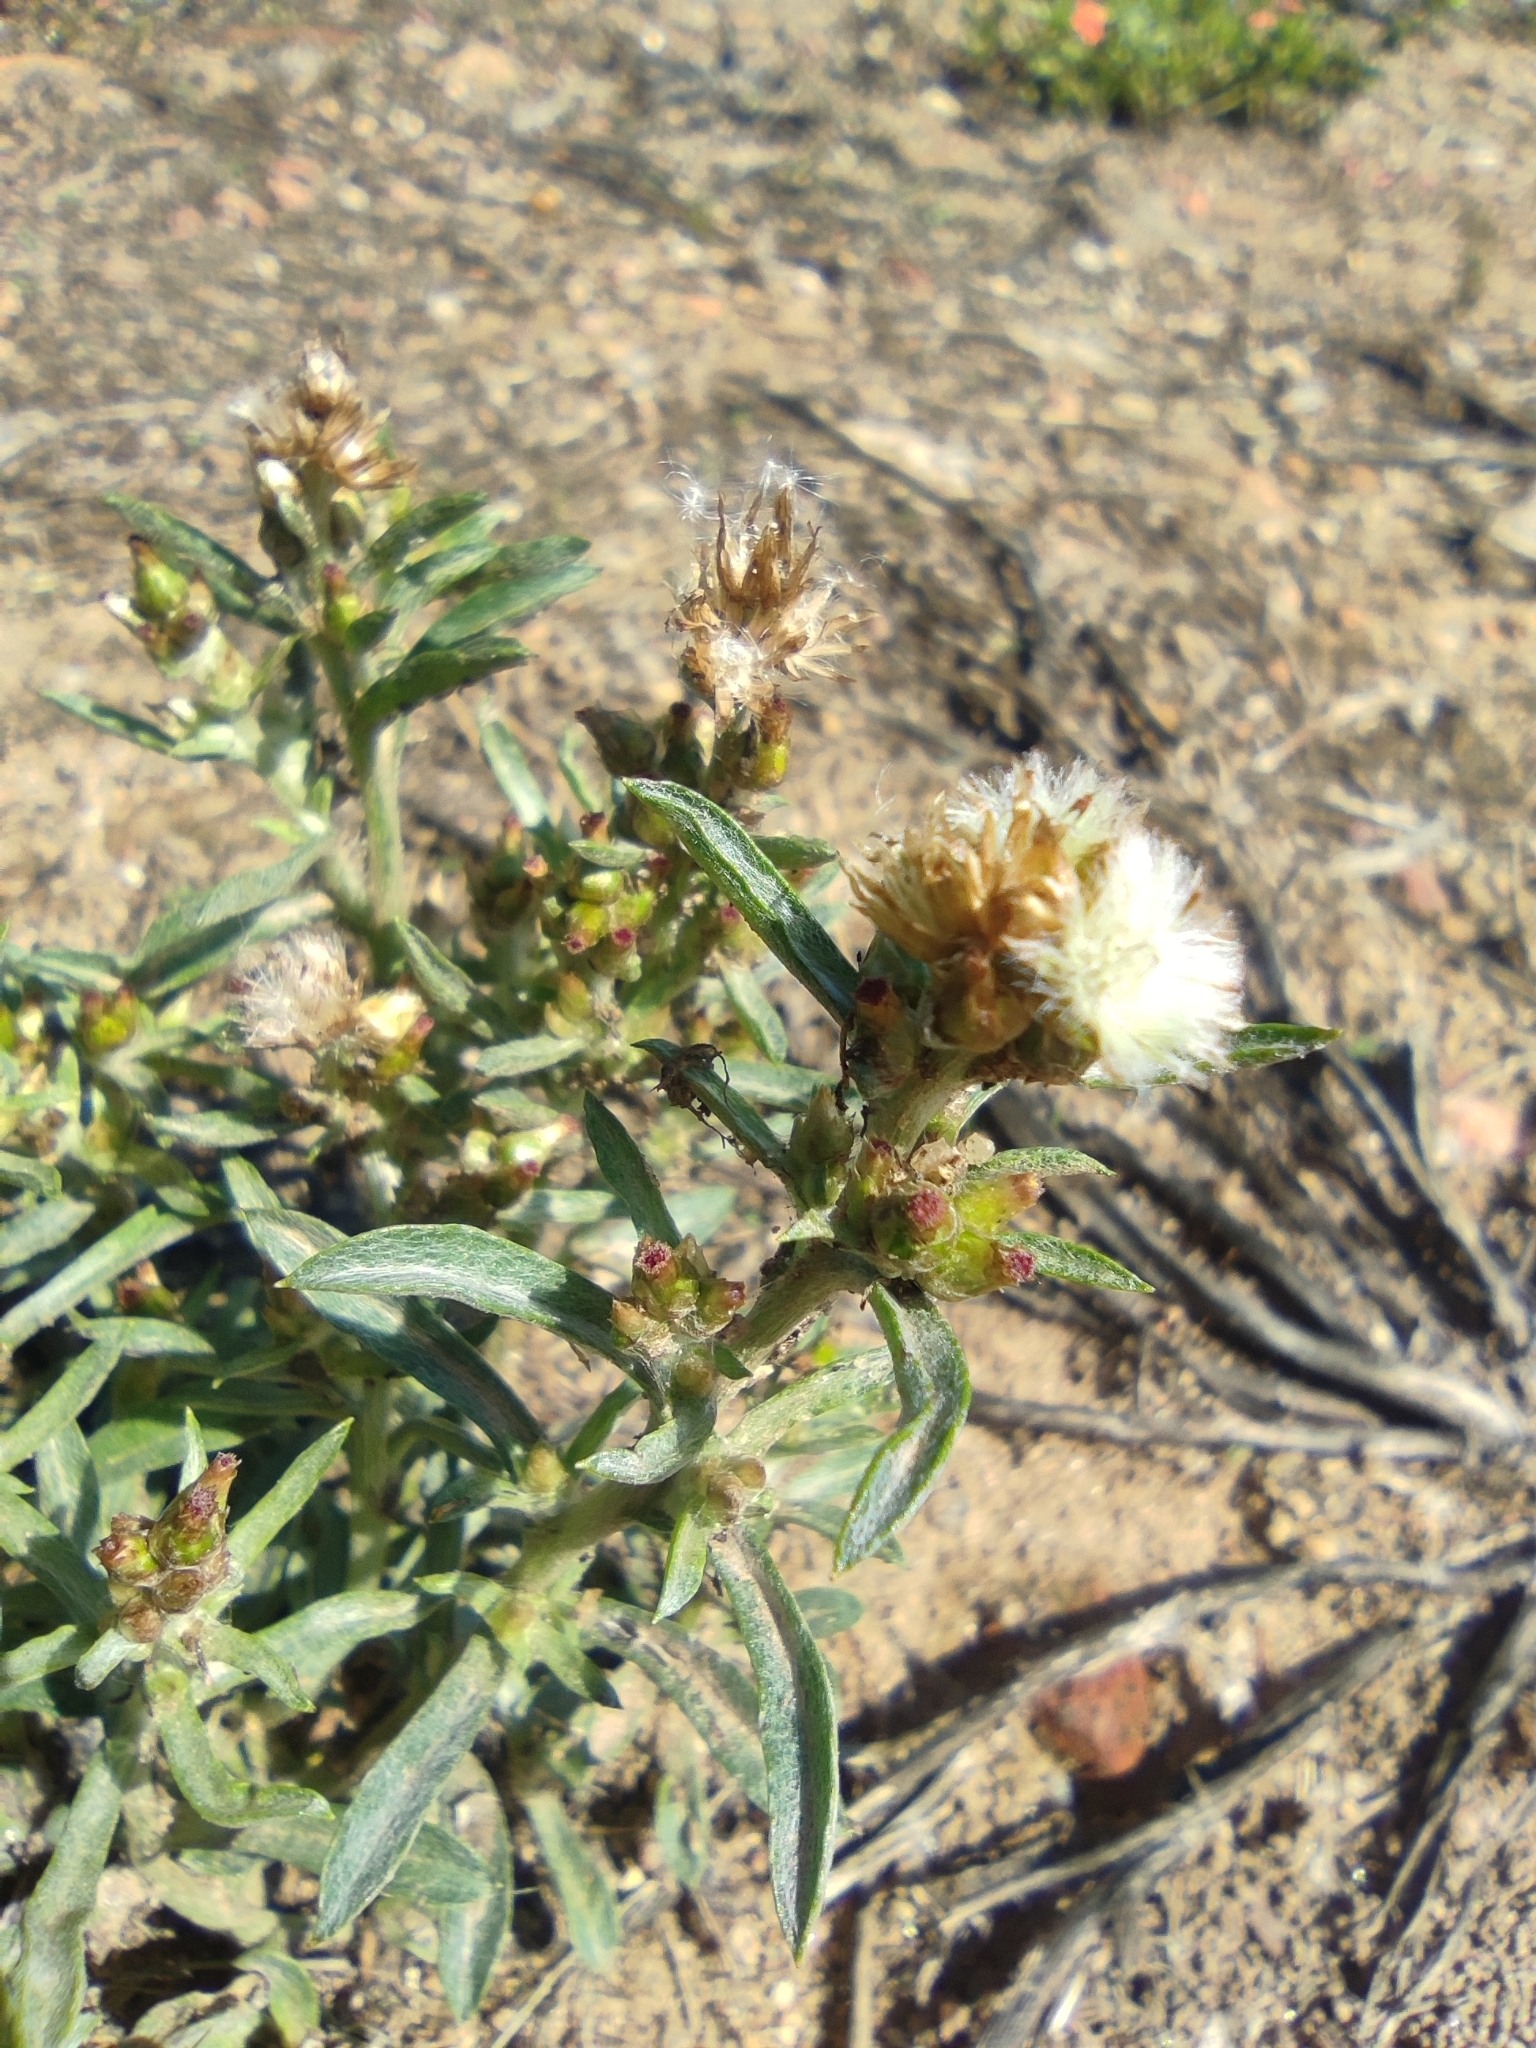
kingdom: Plantae
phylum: Tracheophyta
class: Magnoliopsida
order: Asterales
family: Asteraceae
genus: Gnaphalium
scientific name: Gnaphalium uliginosum
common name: Marsh cudweed
